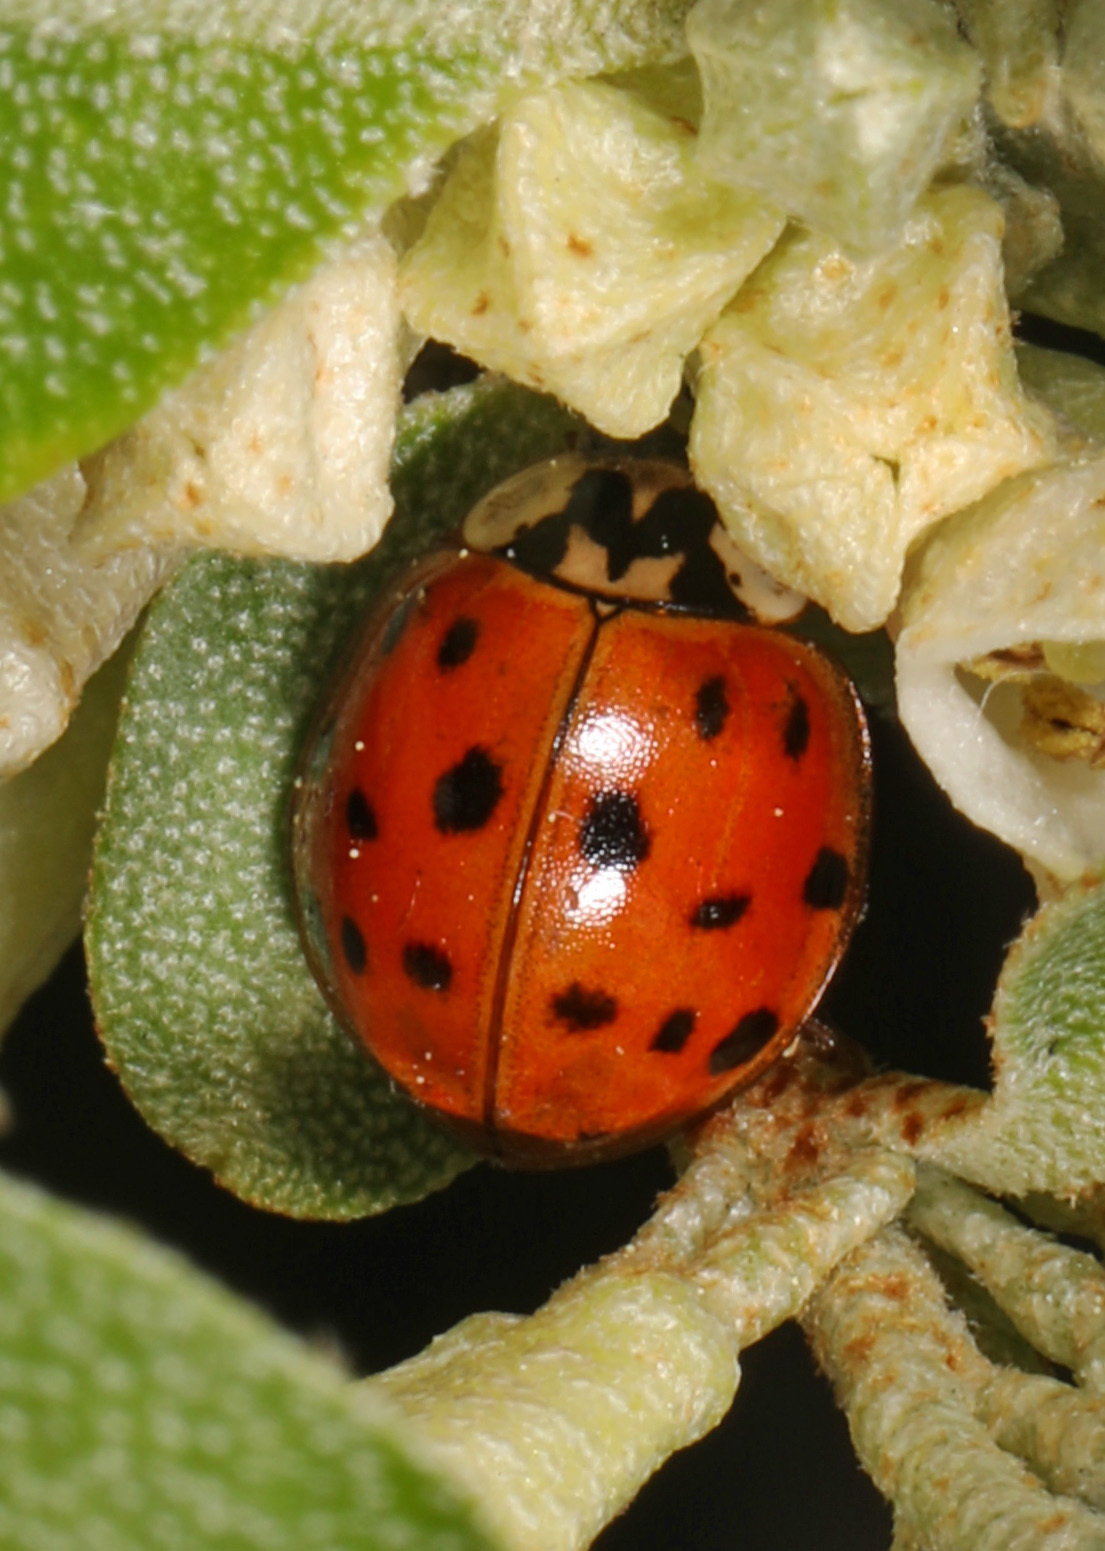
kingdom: Animalia
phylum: Arthropoda
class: Insecta
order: Coleoptera
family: Coccinellidae
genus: Harmonia
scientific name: Harmonia axyridis
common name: Harlequin ladybird
